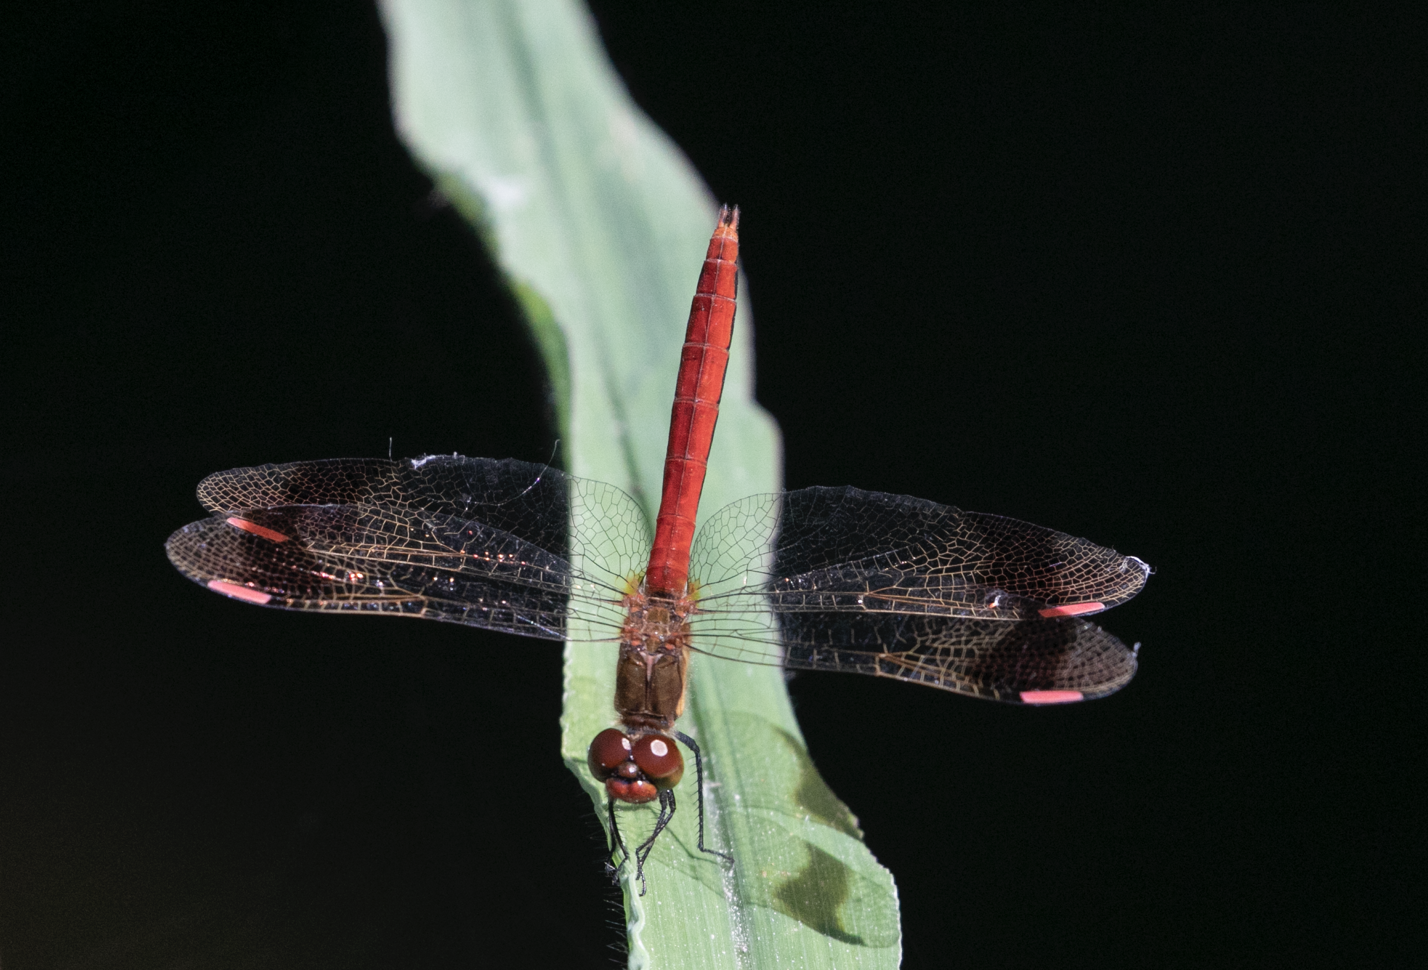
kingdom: Animalia
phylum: Arthropoda
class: Insecta
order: Odonata
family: Libellulidae
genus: Sympetrum
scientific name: Sympetrum pedemontanum
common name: Banded darter
